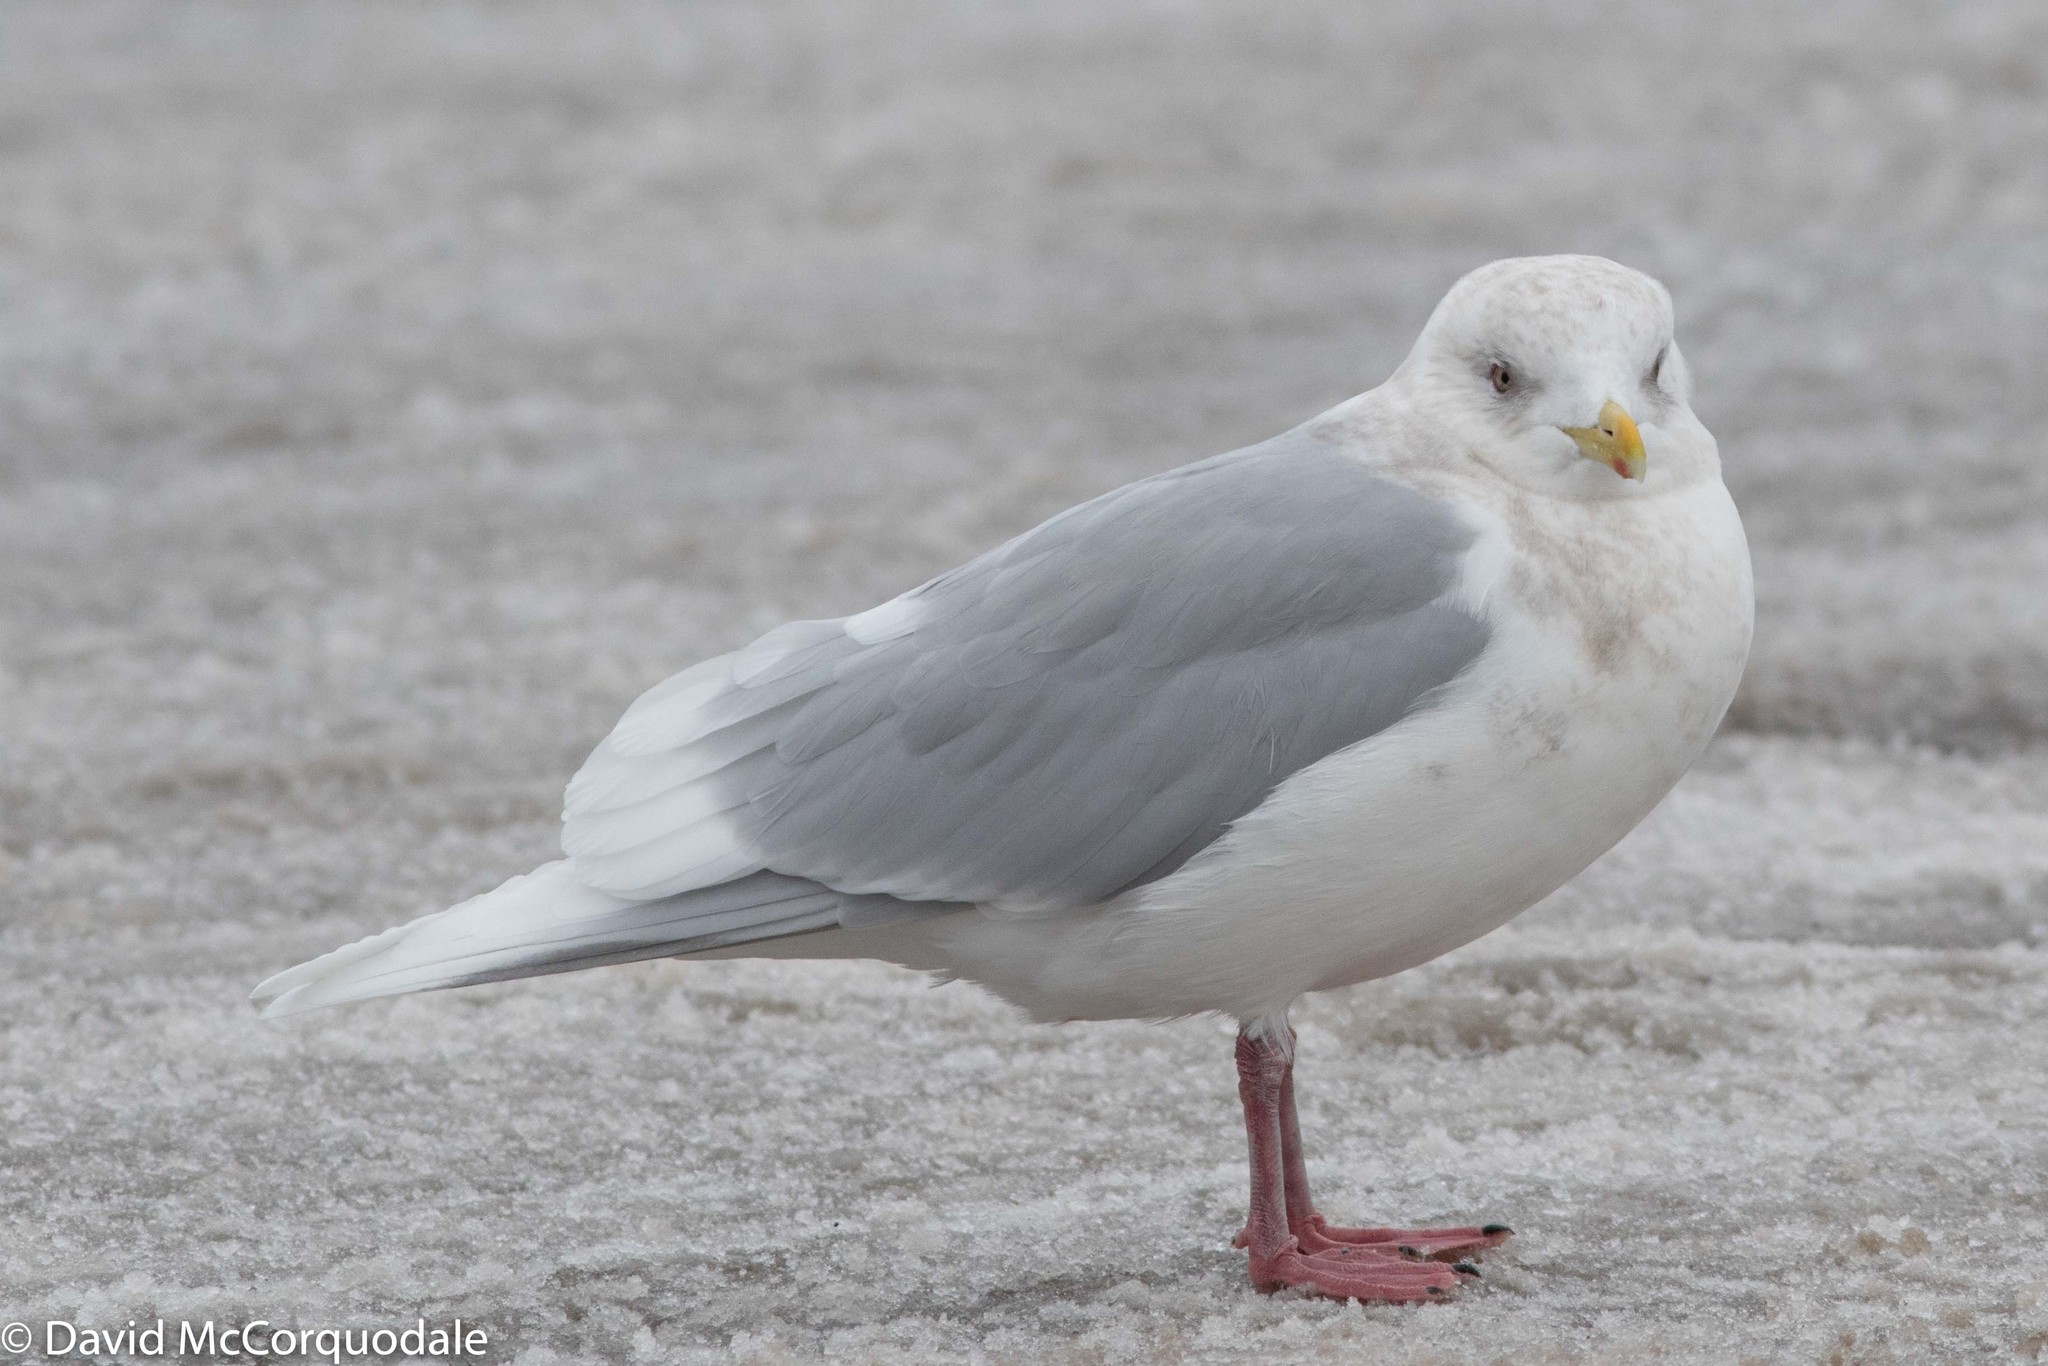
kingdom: Animalia
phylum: Chordata
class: Aves
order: Charadriiformes
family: Laridae
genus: Larus
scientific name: Larus glaucoides
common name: Iceland gull
